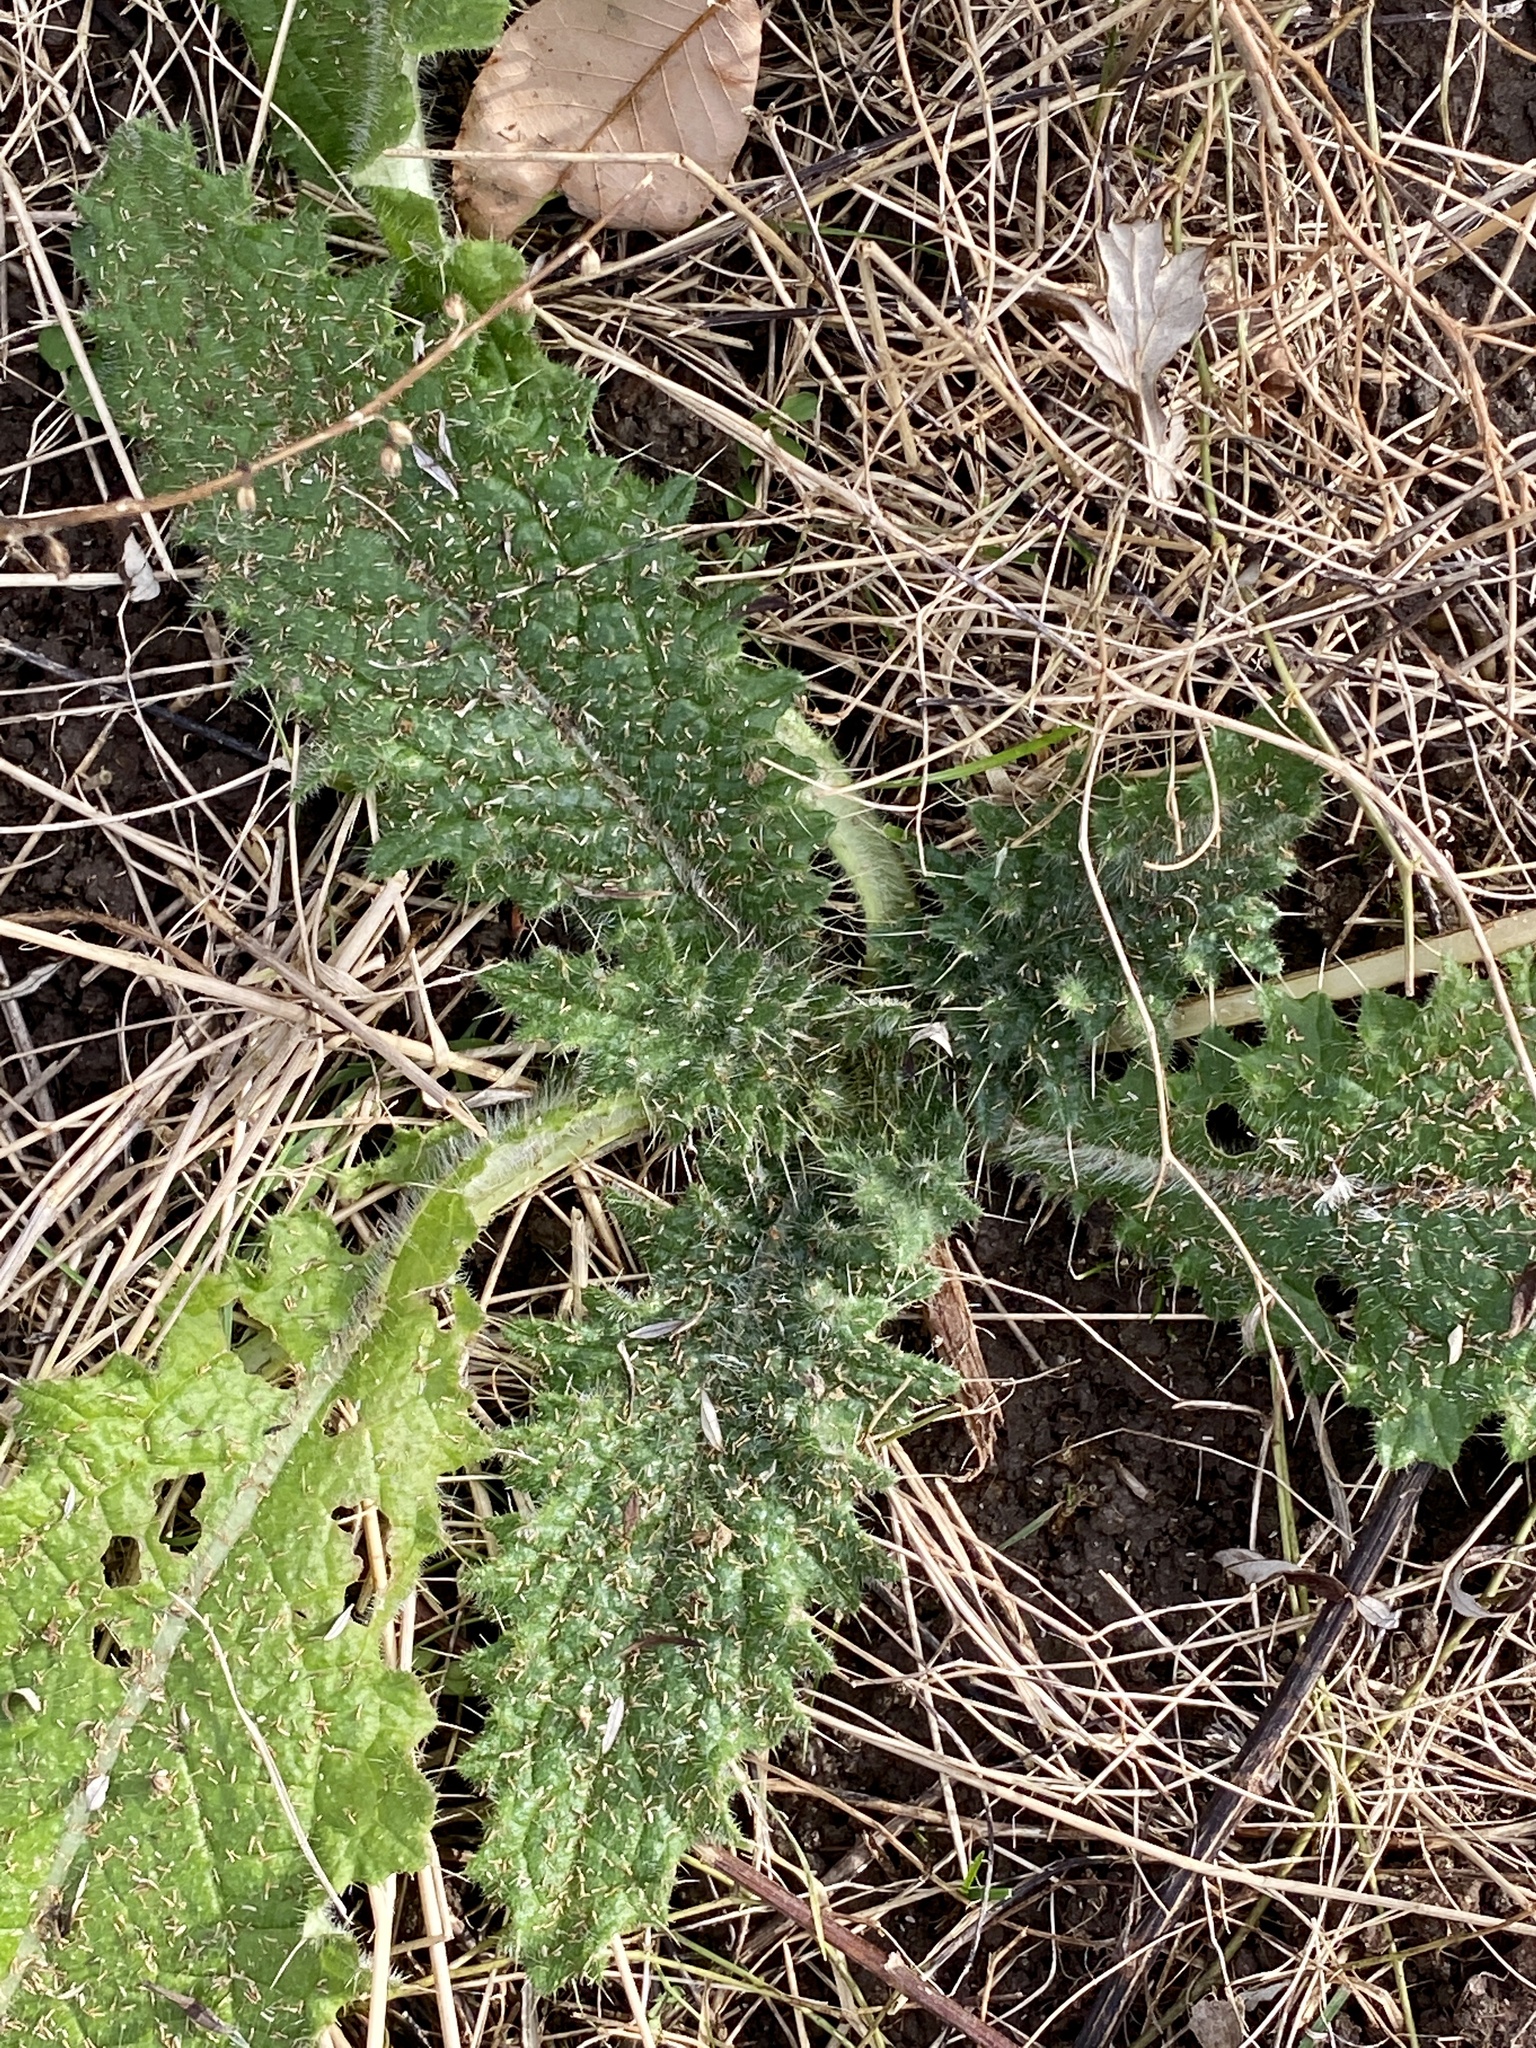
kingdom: Plantae
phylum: Tracheophyta
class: Magnoliopsida
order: Asterales
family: Asteraceae
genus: Cirsium
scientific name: Cirsium vulgare
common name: Bull thistle
